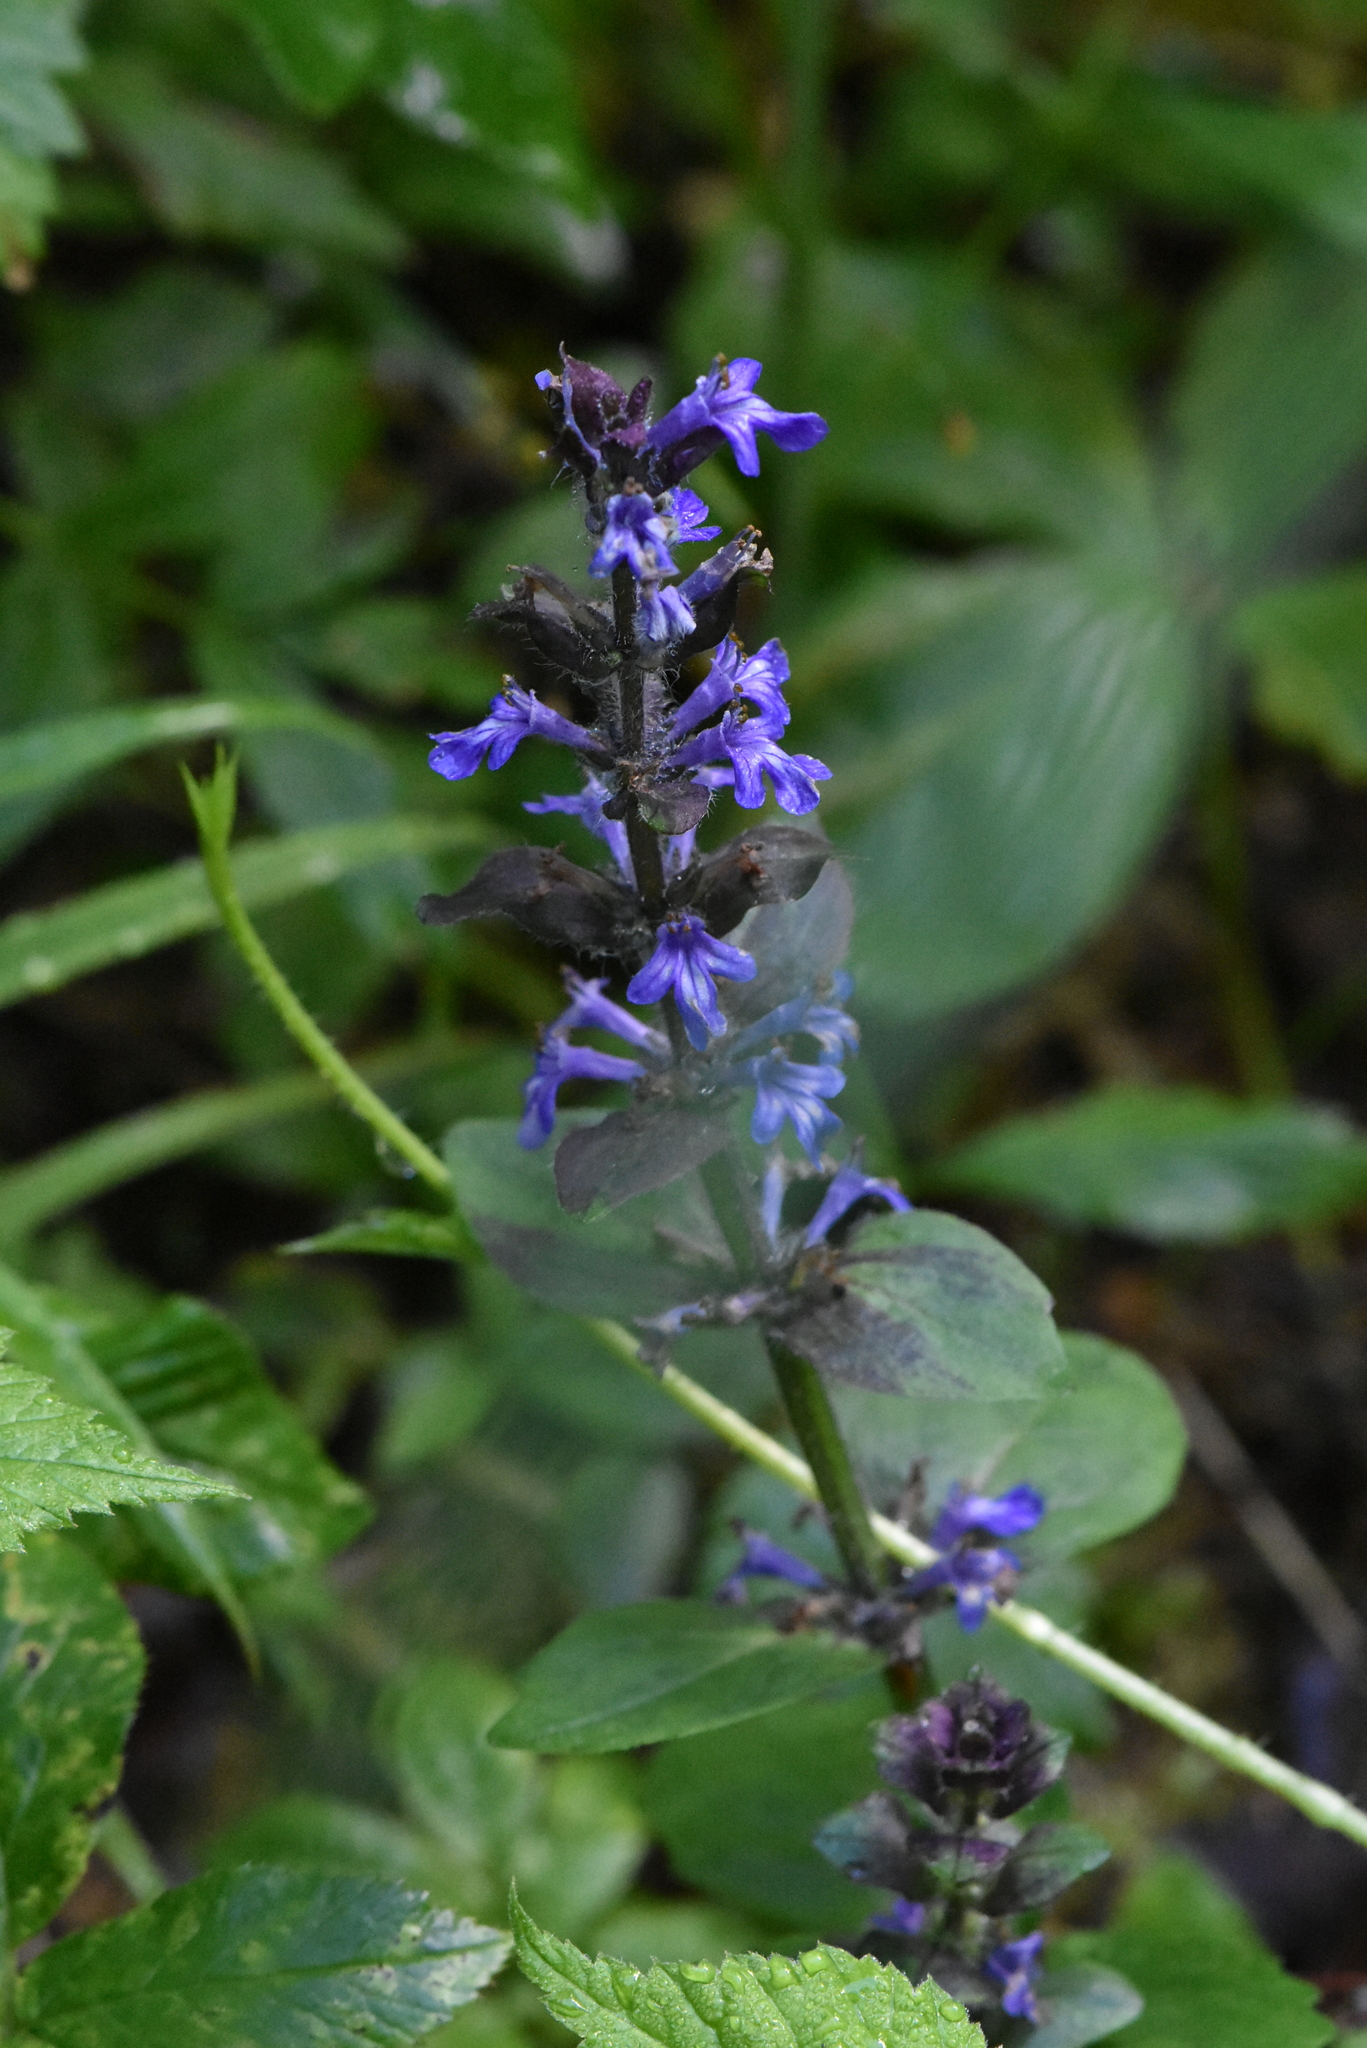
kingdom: Plantae
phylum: Tracheophyta
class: Magnoliopsida
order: Lamiales
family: Lamiaceae
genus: Ajuga
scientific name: Ajuga reptans
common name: Bugle
